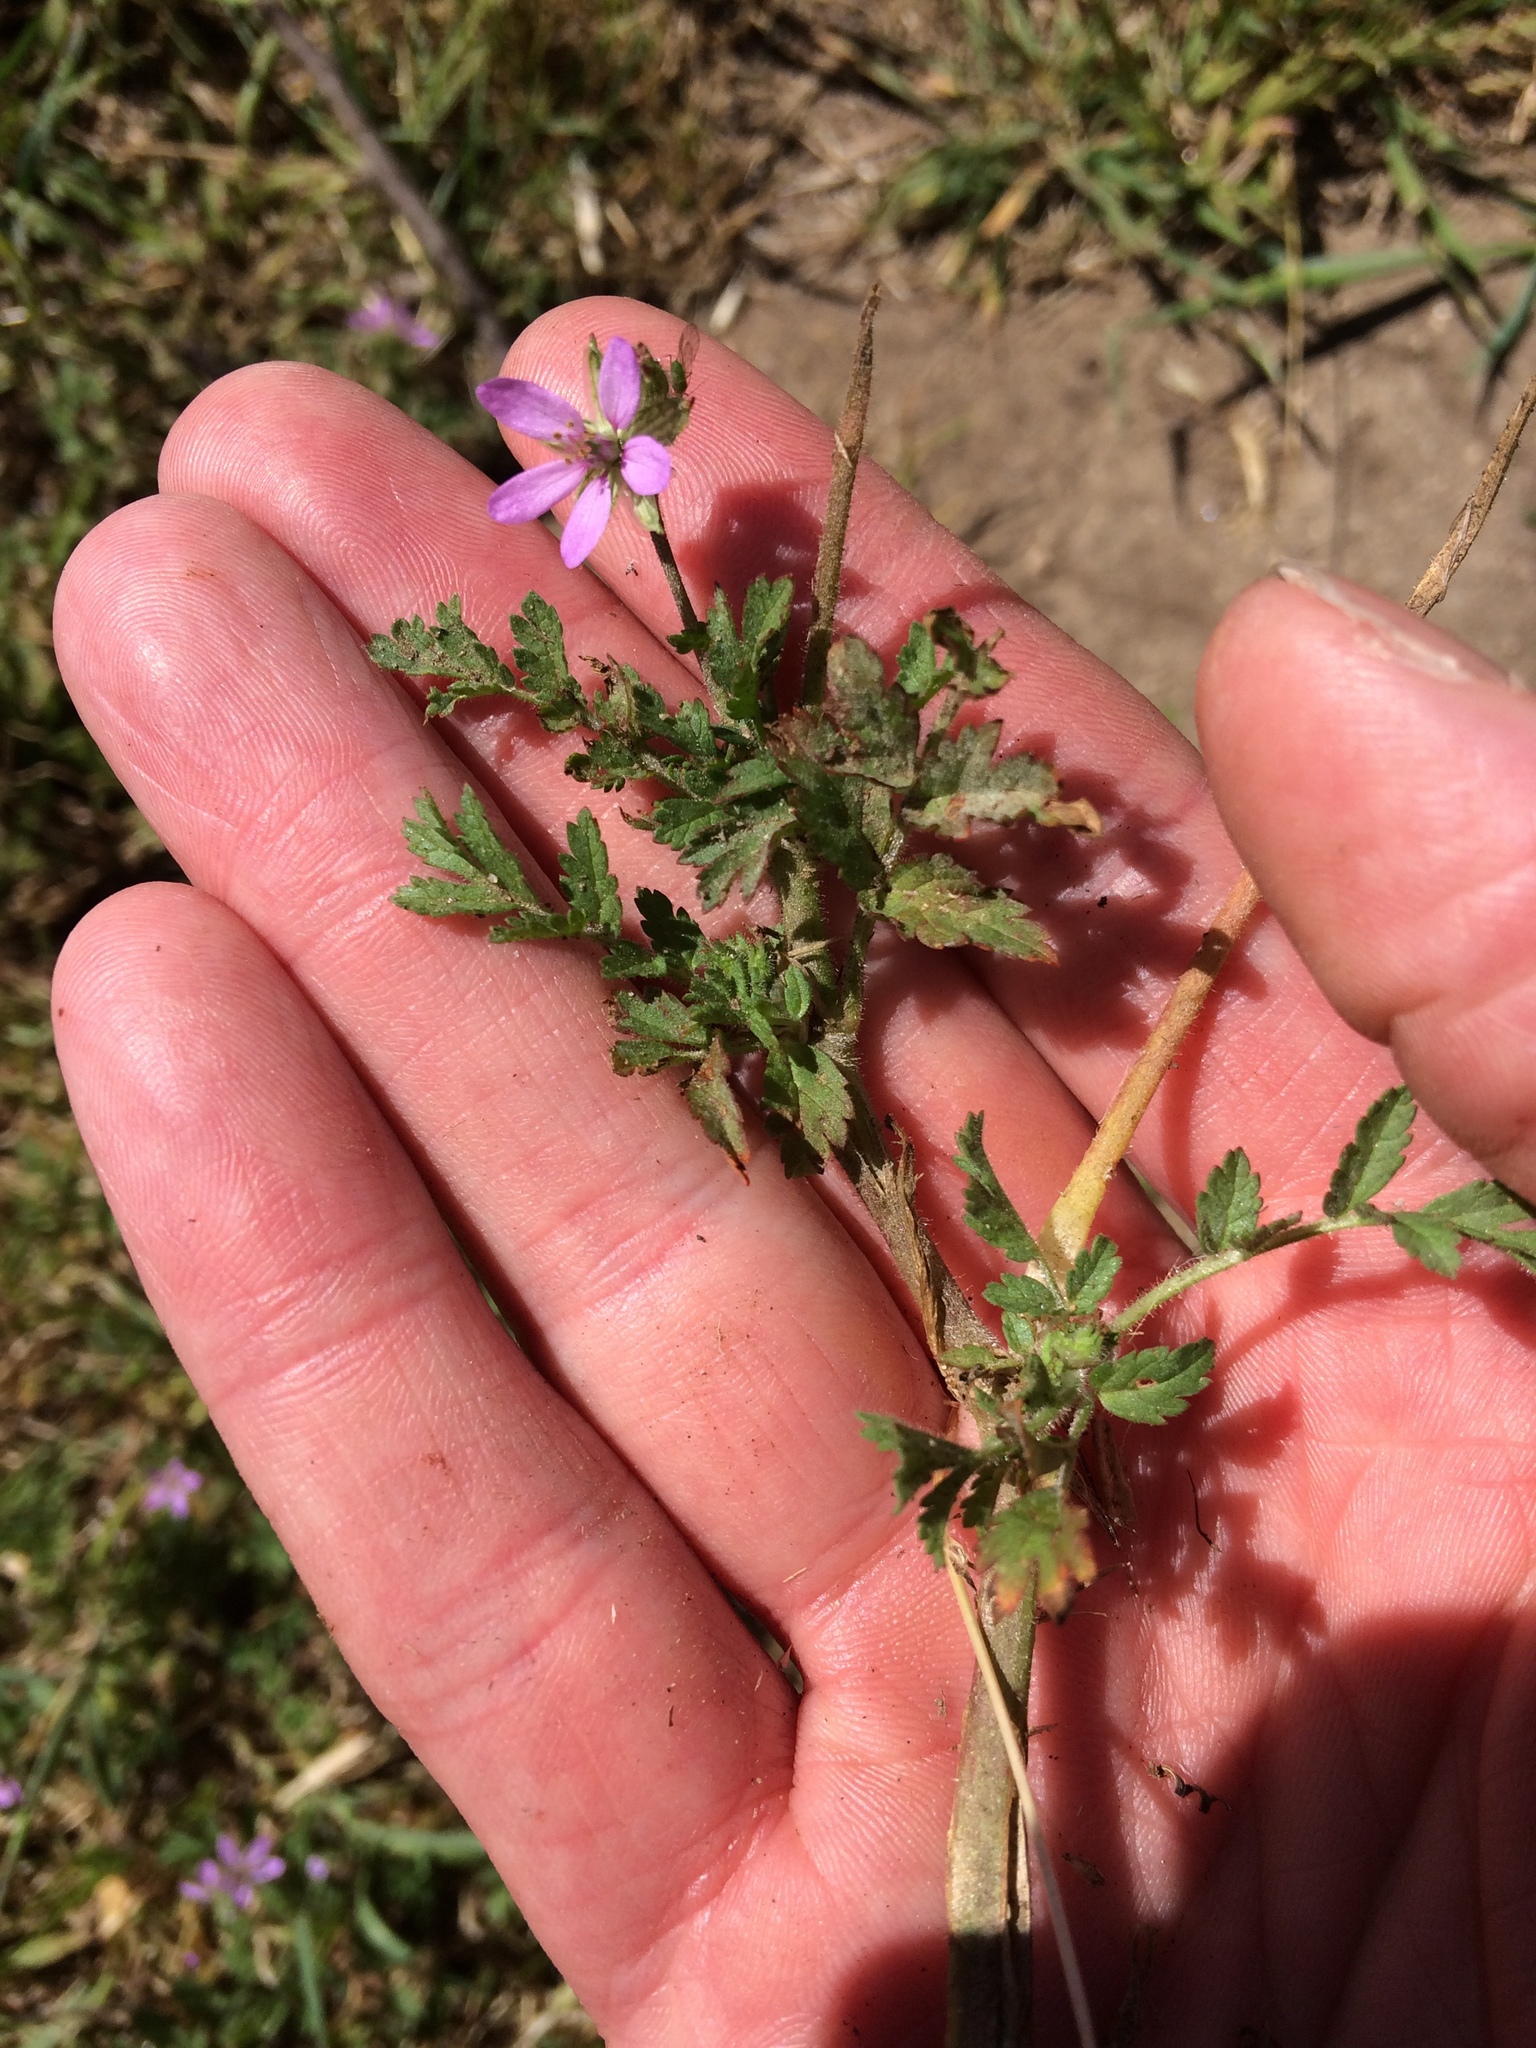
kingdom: Plantae
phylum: Tracheophyta
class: Magnoliopsida
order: Geraniales
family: Geraniaceae
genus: Erodium
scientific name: Erodium moschatum
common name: Musk stork's-bill
